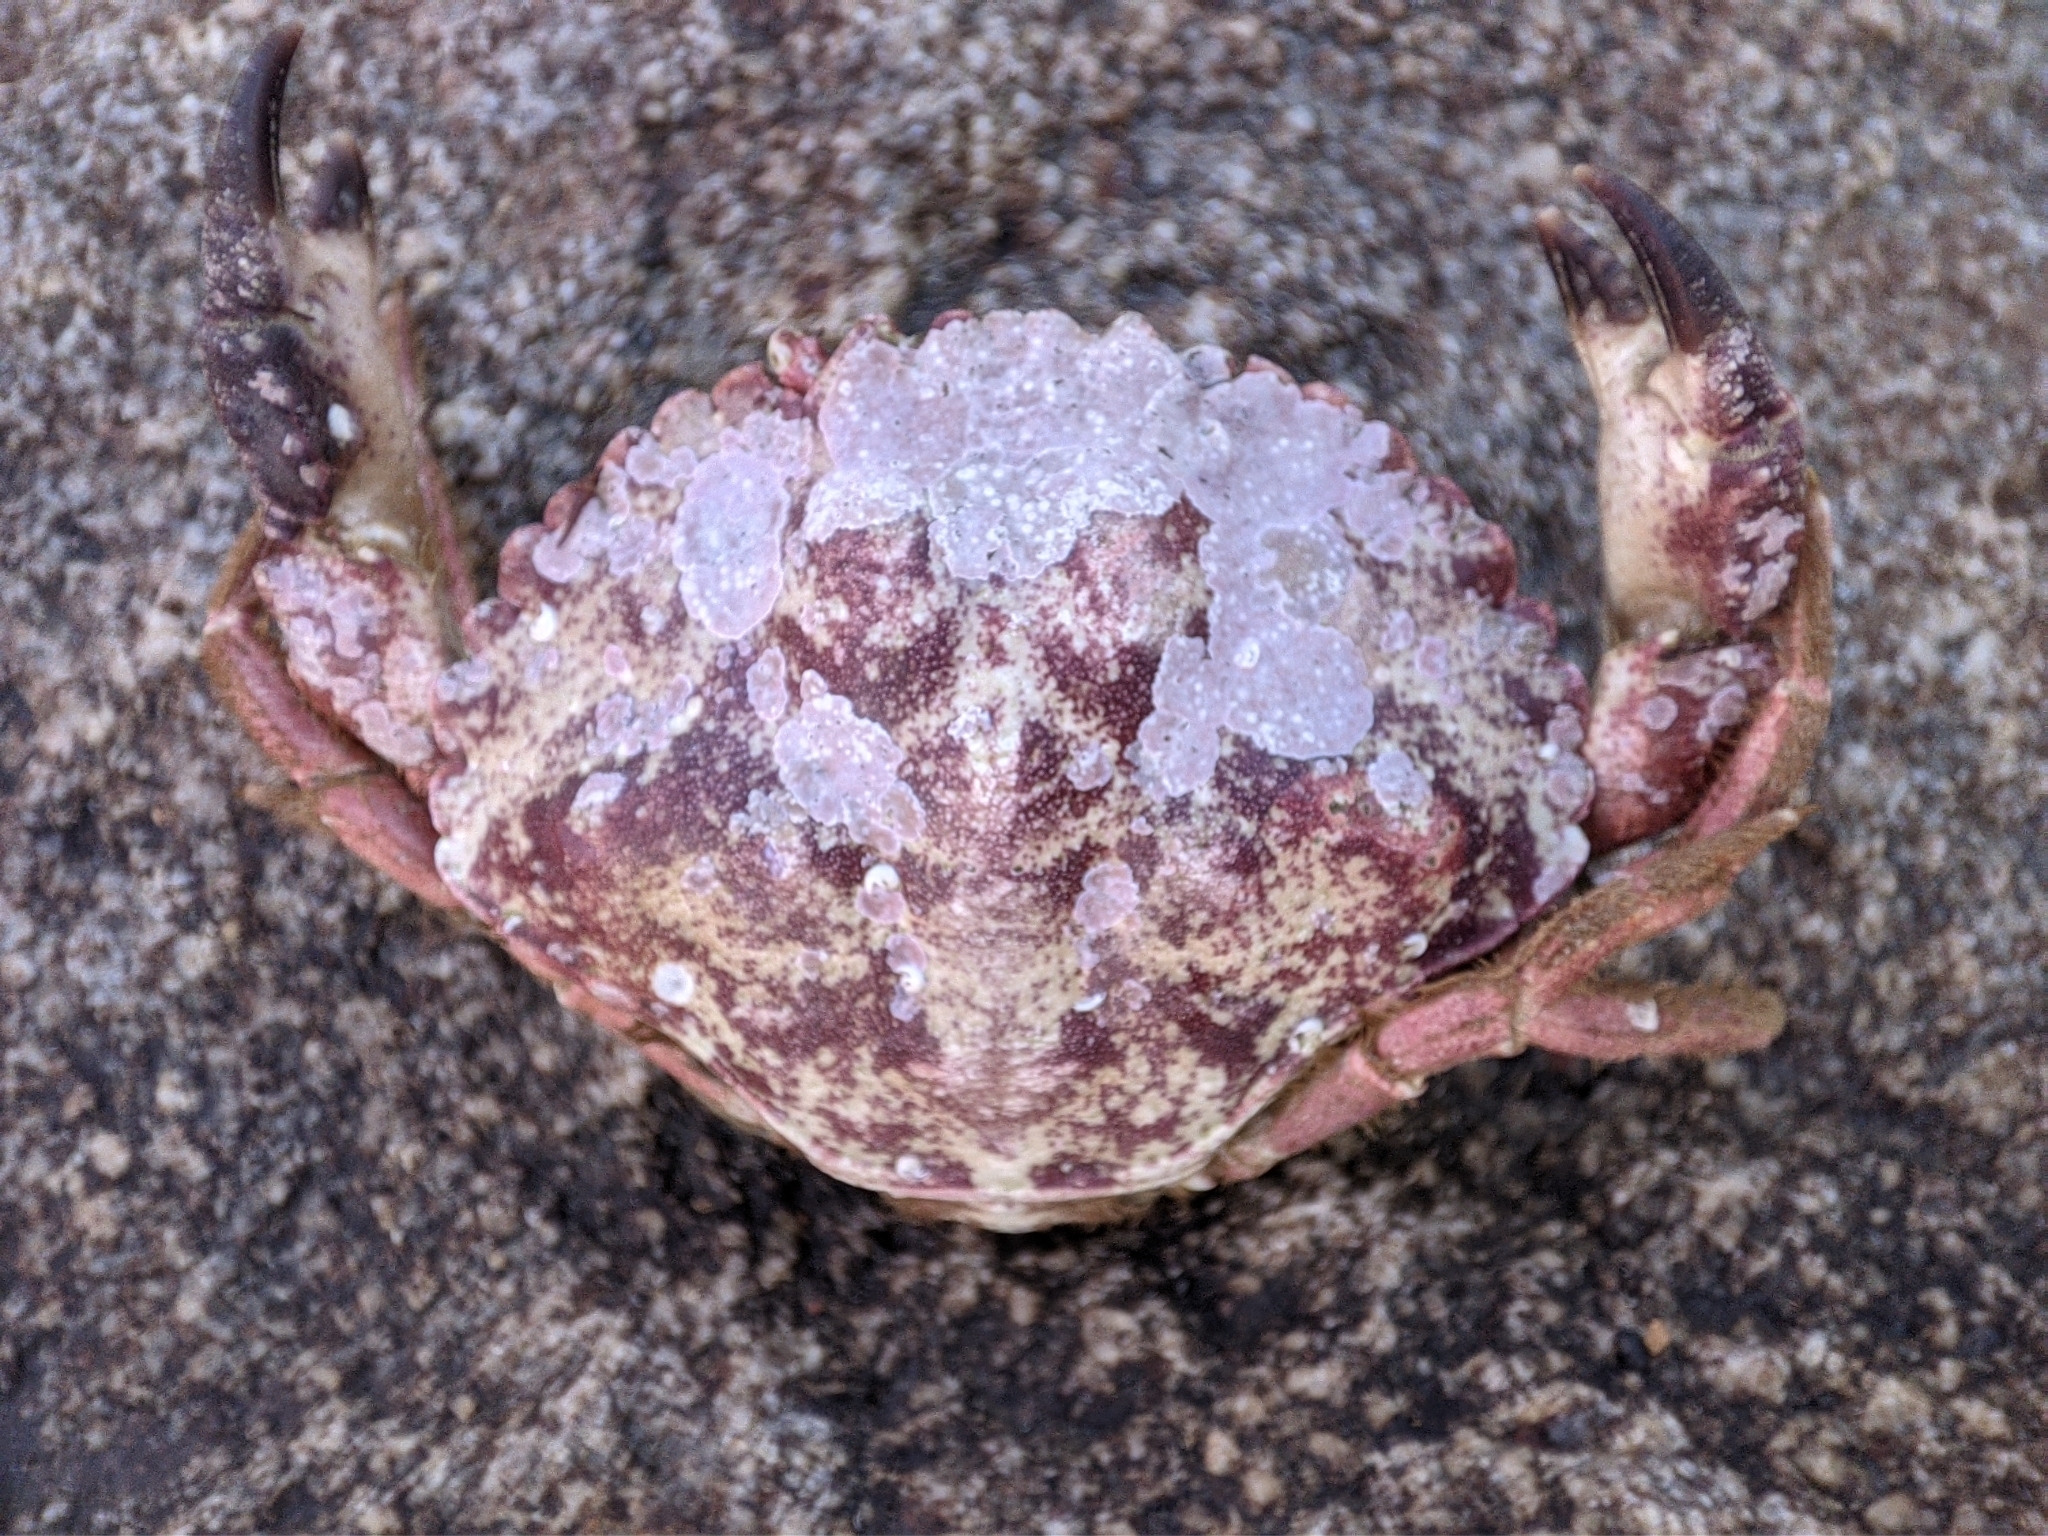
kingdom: Animalia
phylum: Arthropoda
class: Malacostraca
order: Decapoda
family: Cancridae
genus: Glebocarcinus
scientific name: Glebocarcinus amphioetus
